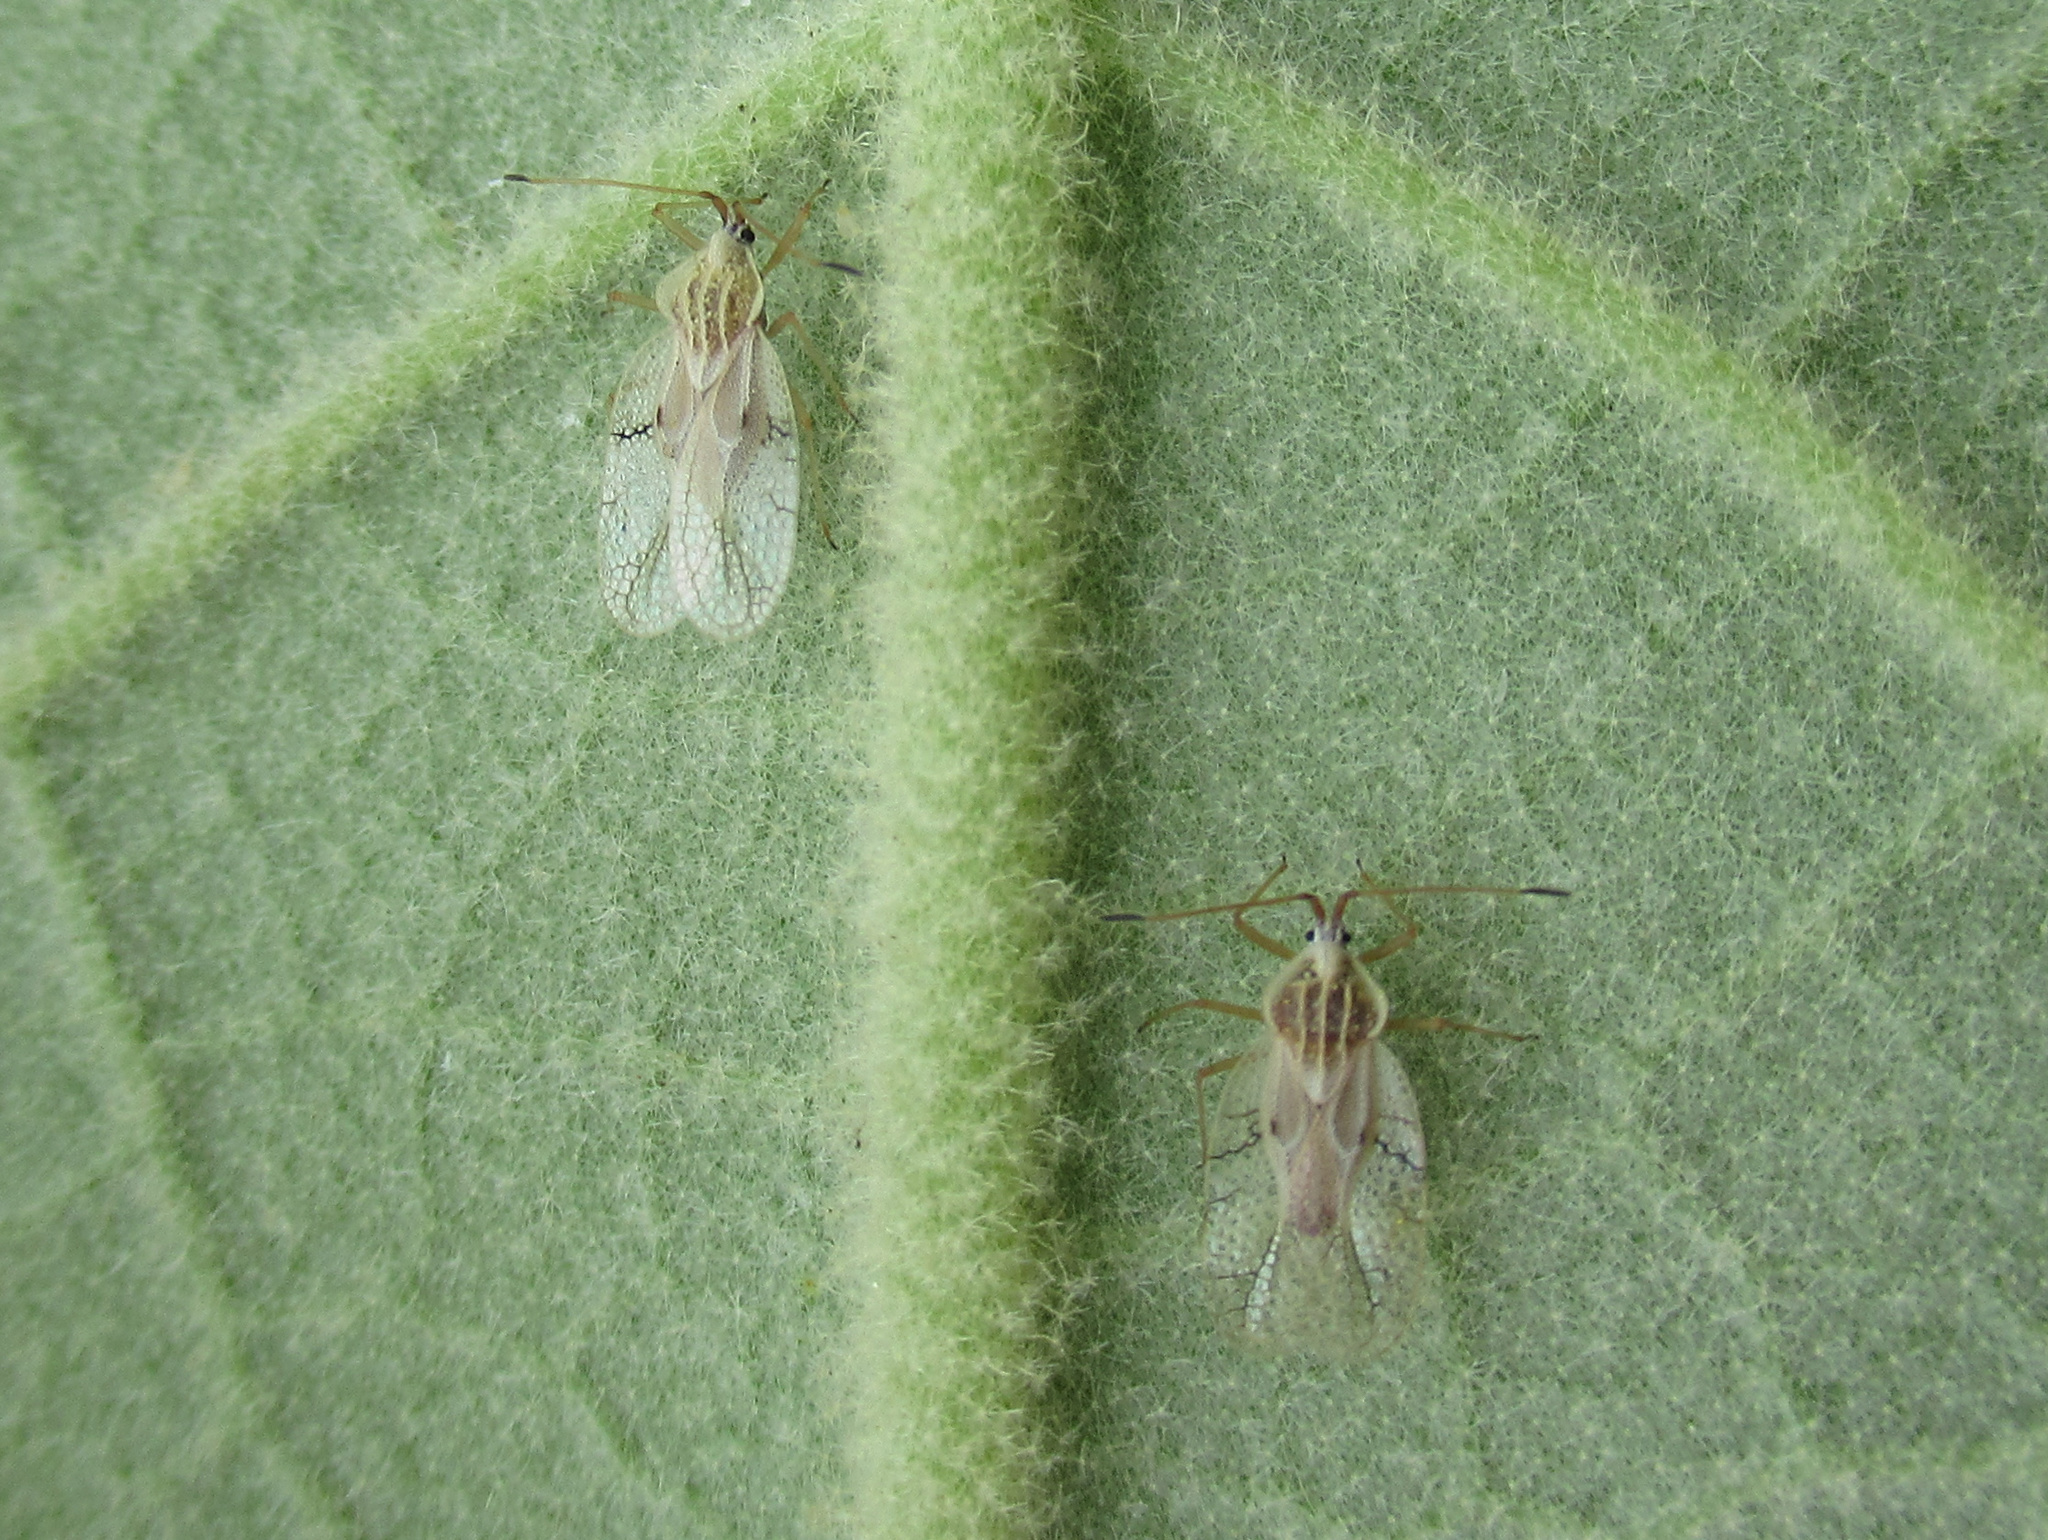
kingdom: Animalia
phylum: Arthropoda
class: Insecta
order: Hemiptera
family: Tingidae
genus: Gargaphia
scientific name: Gargaphia decoris
